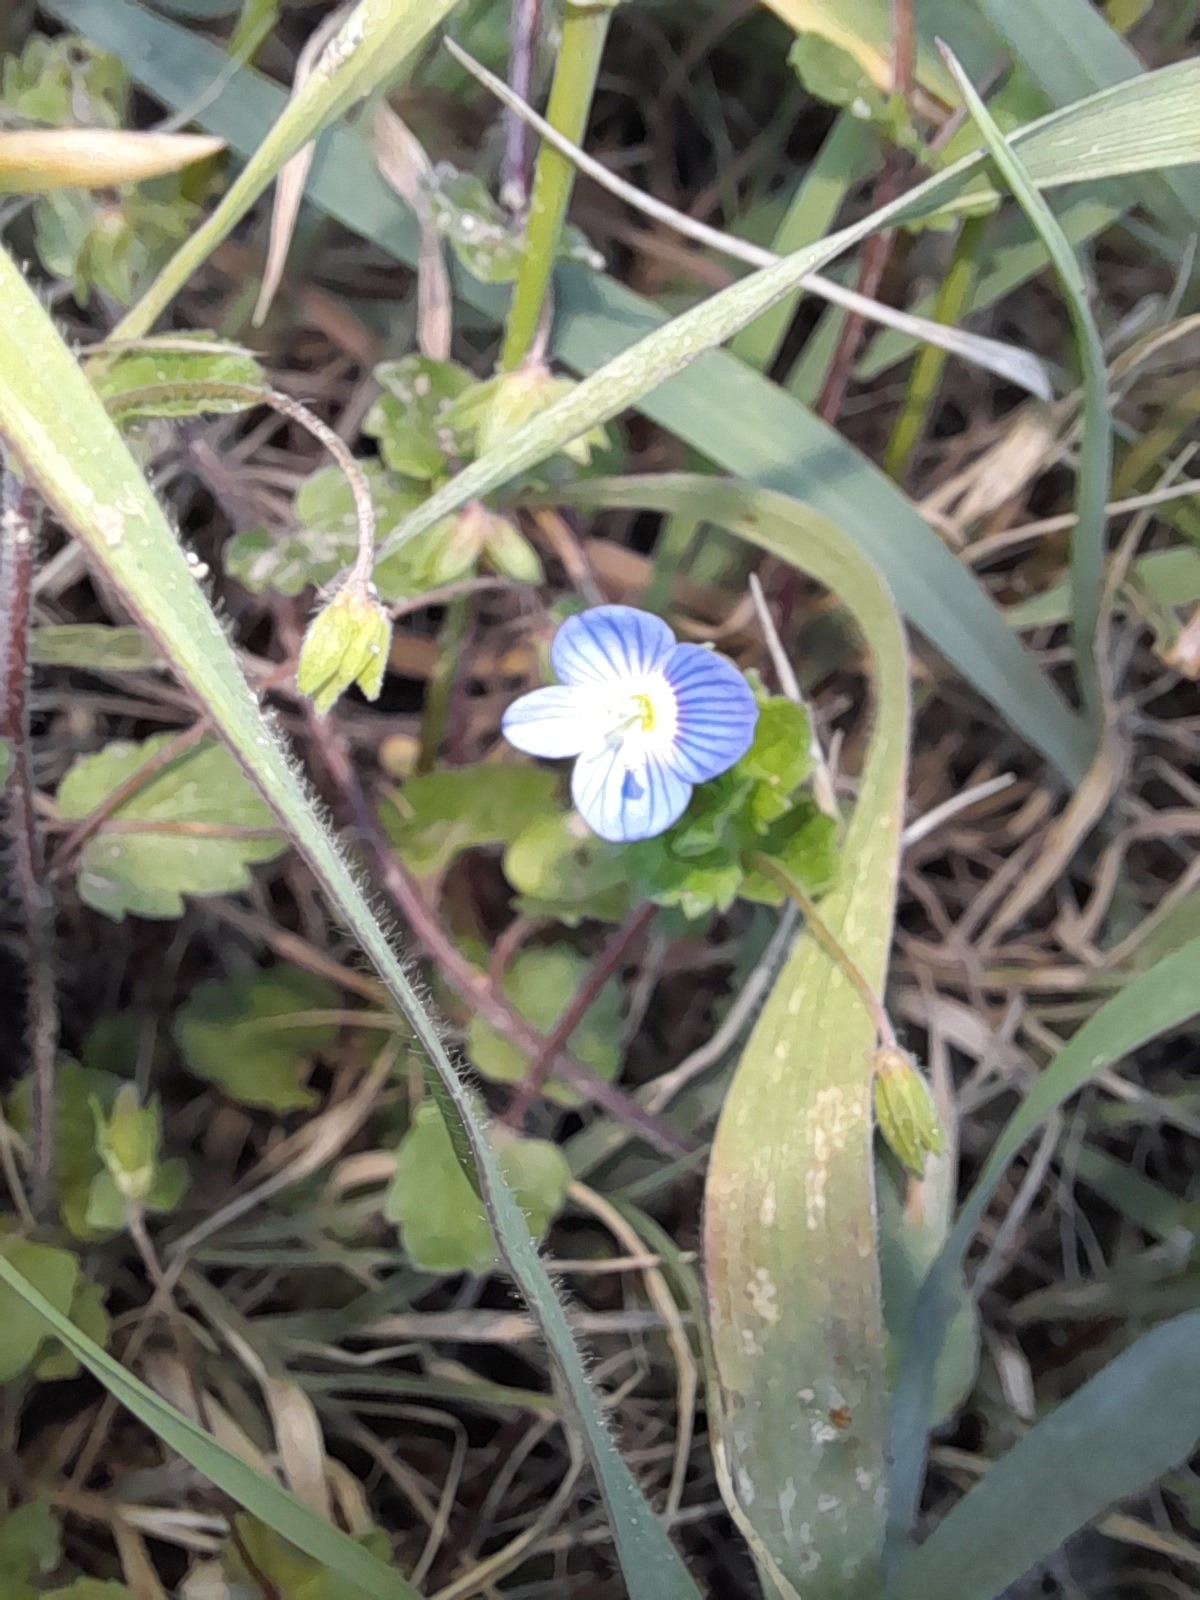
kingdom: Plantae
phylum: Tracheophyta
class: Magnoliopsida
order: Lamiales
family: Plantaginaceae
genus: Veronica
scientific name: Veronica persica
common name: Common field-speedwell
